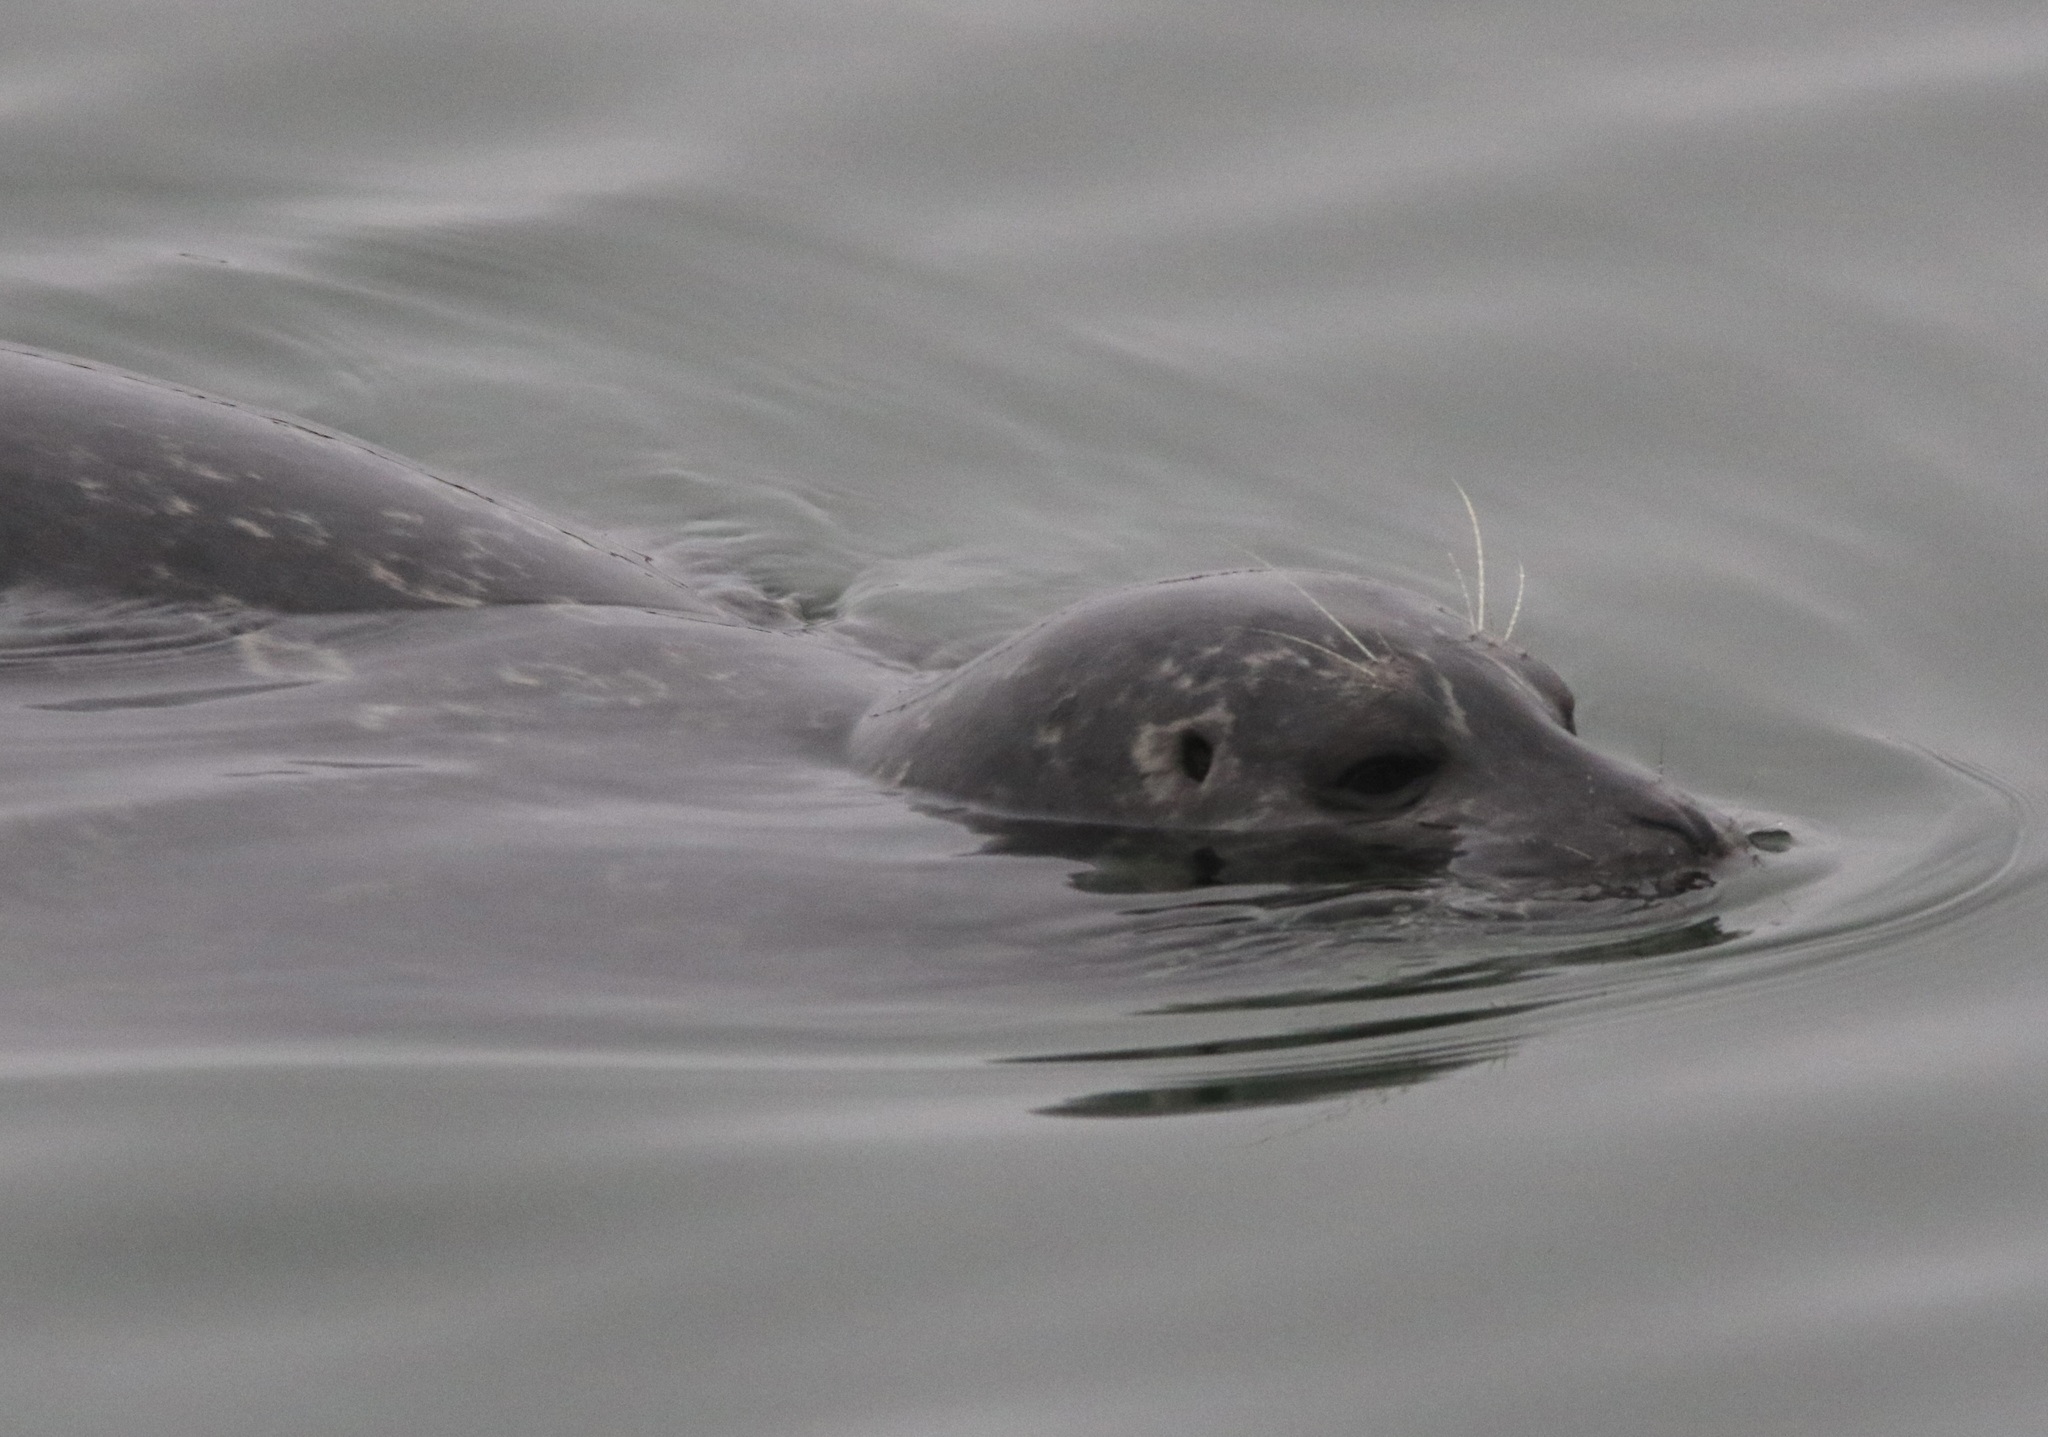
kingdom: Animalia
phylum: Chordata
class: Mammalia
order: Carnivora
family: Phocidae
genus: Phoca
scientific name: Phoca vitulina
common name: Harbor seal
